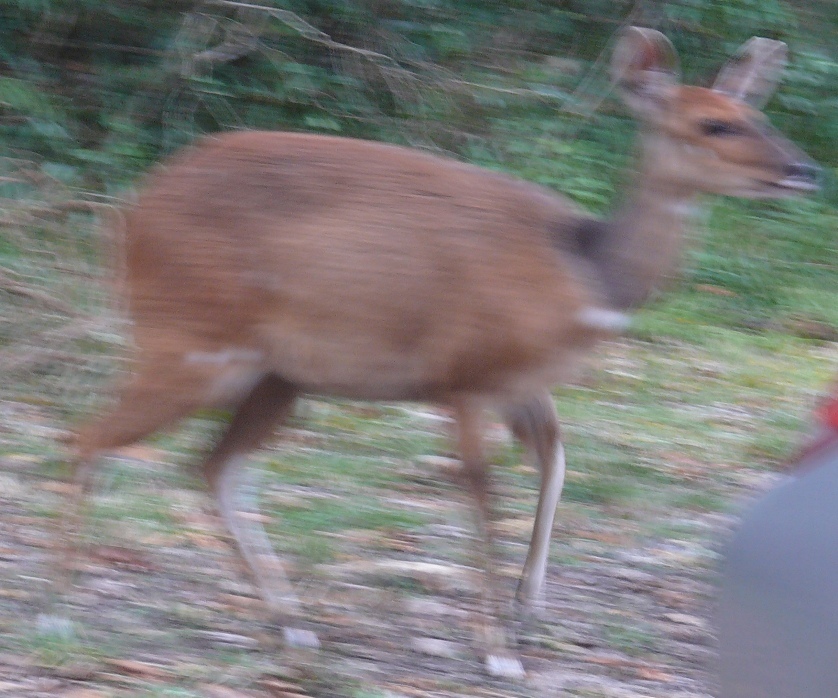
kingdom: Animalia
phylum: Chordata
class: Mammalia
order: Artiodactyla
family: Bovidae
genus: Tragelaphus
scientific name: Tragelaphus scriptus
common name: Bushbuck
